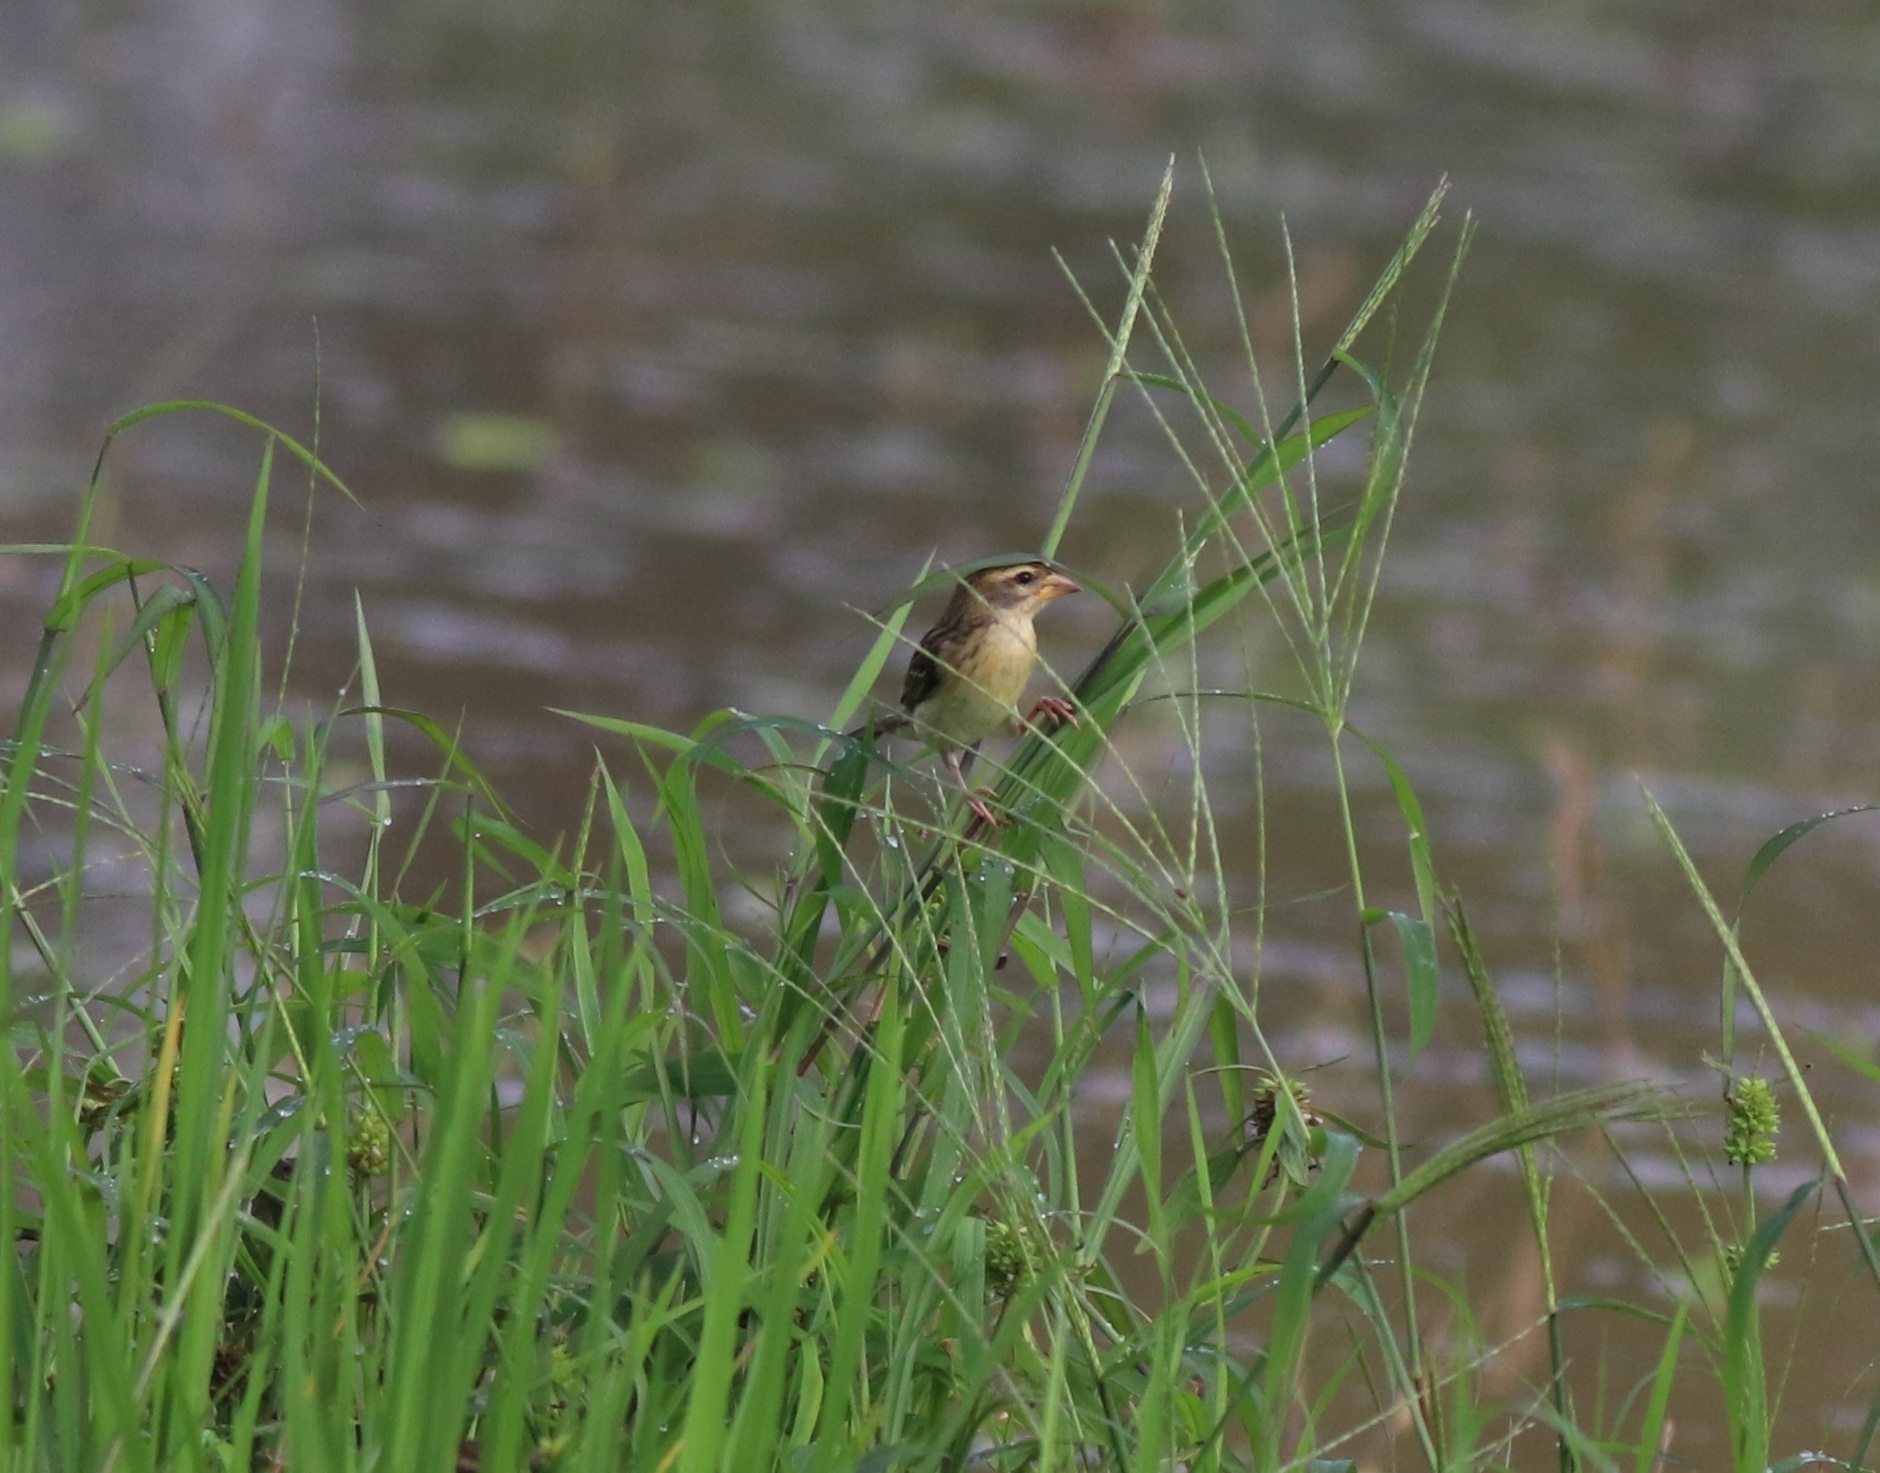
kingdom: Animalia
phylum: Chordata
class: Aves
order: Passeriformes
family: Ploceidae
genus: Ploceus
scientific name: Ploceus philippinus
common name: Baya weaver
